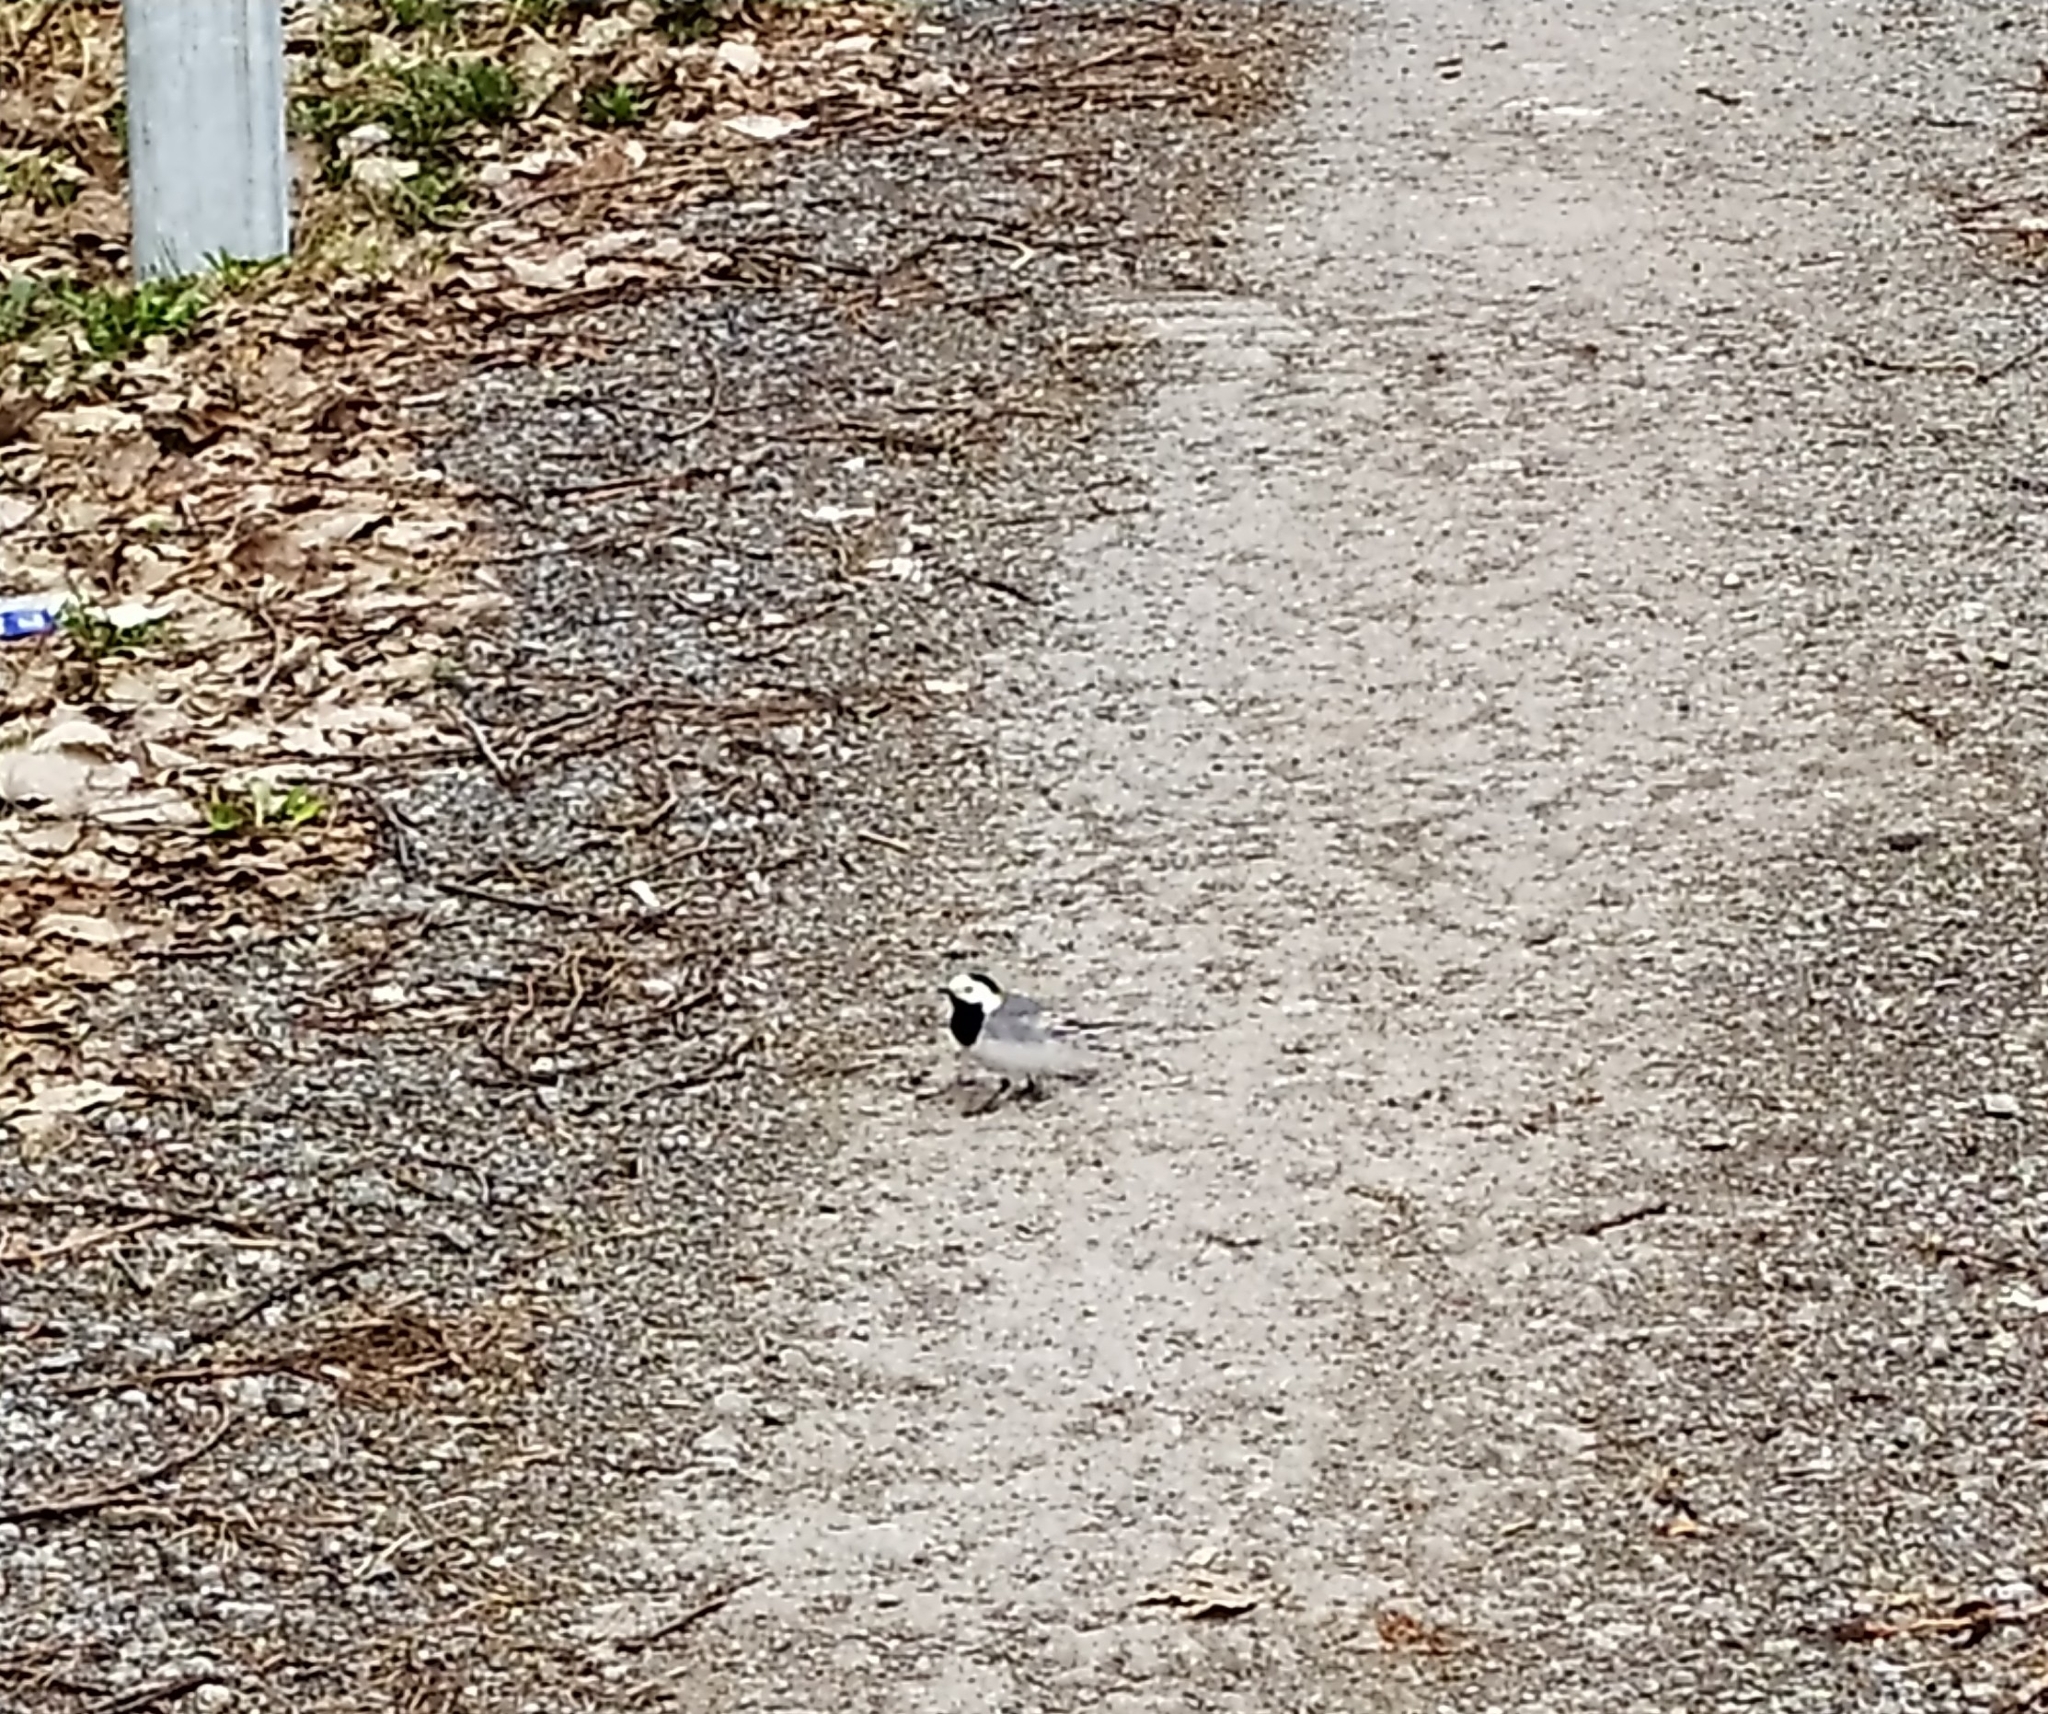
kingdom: Animalia
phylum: Chordata
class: Aves
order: Passeriformes
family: Motacillidae
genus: Motacilla
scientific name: Motacilla alba
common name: White wagtail
